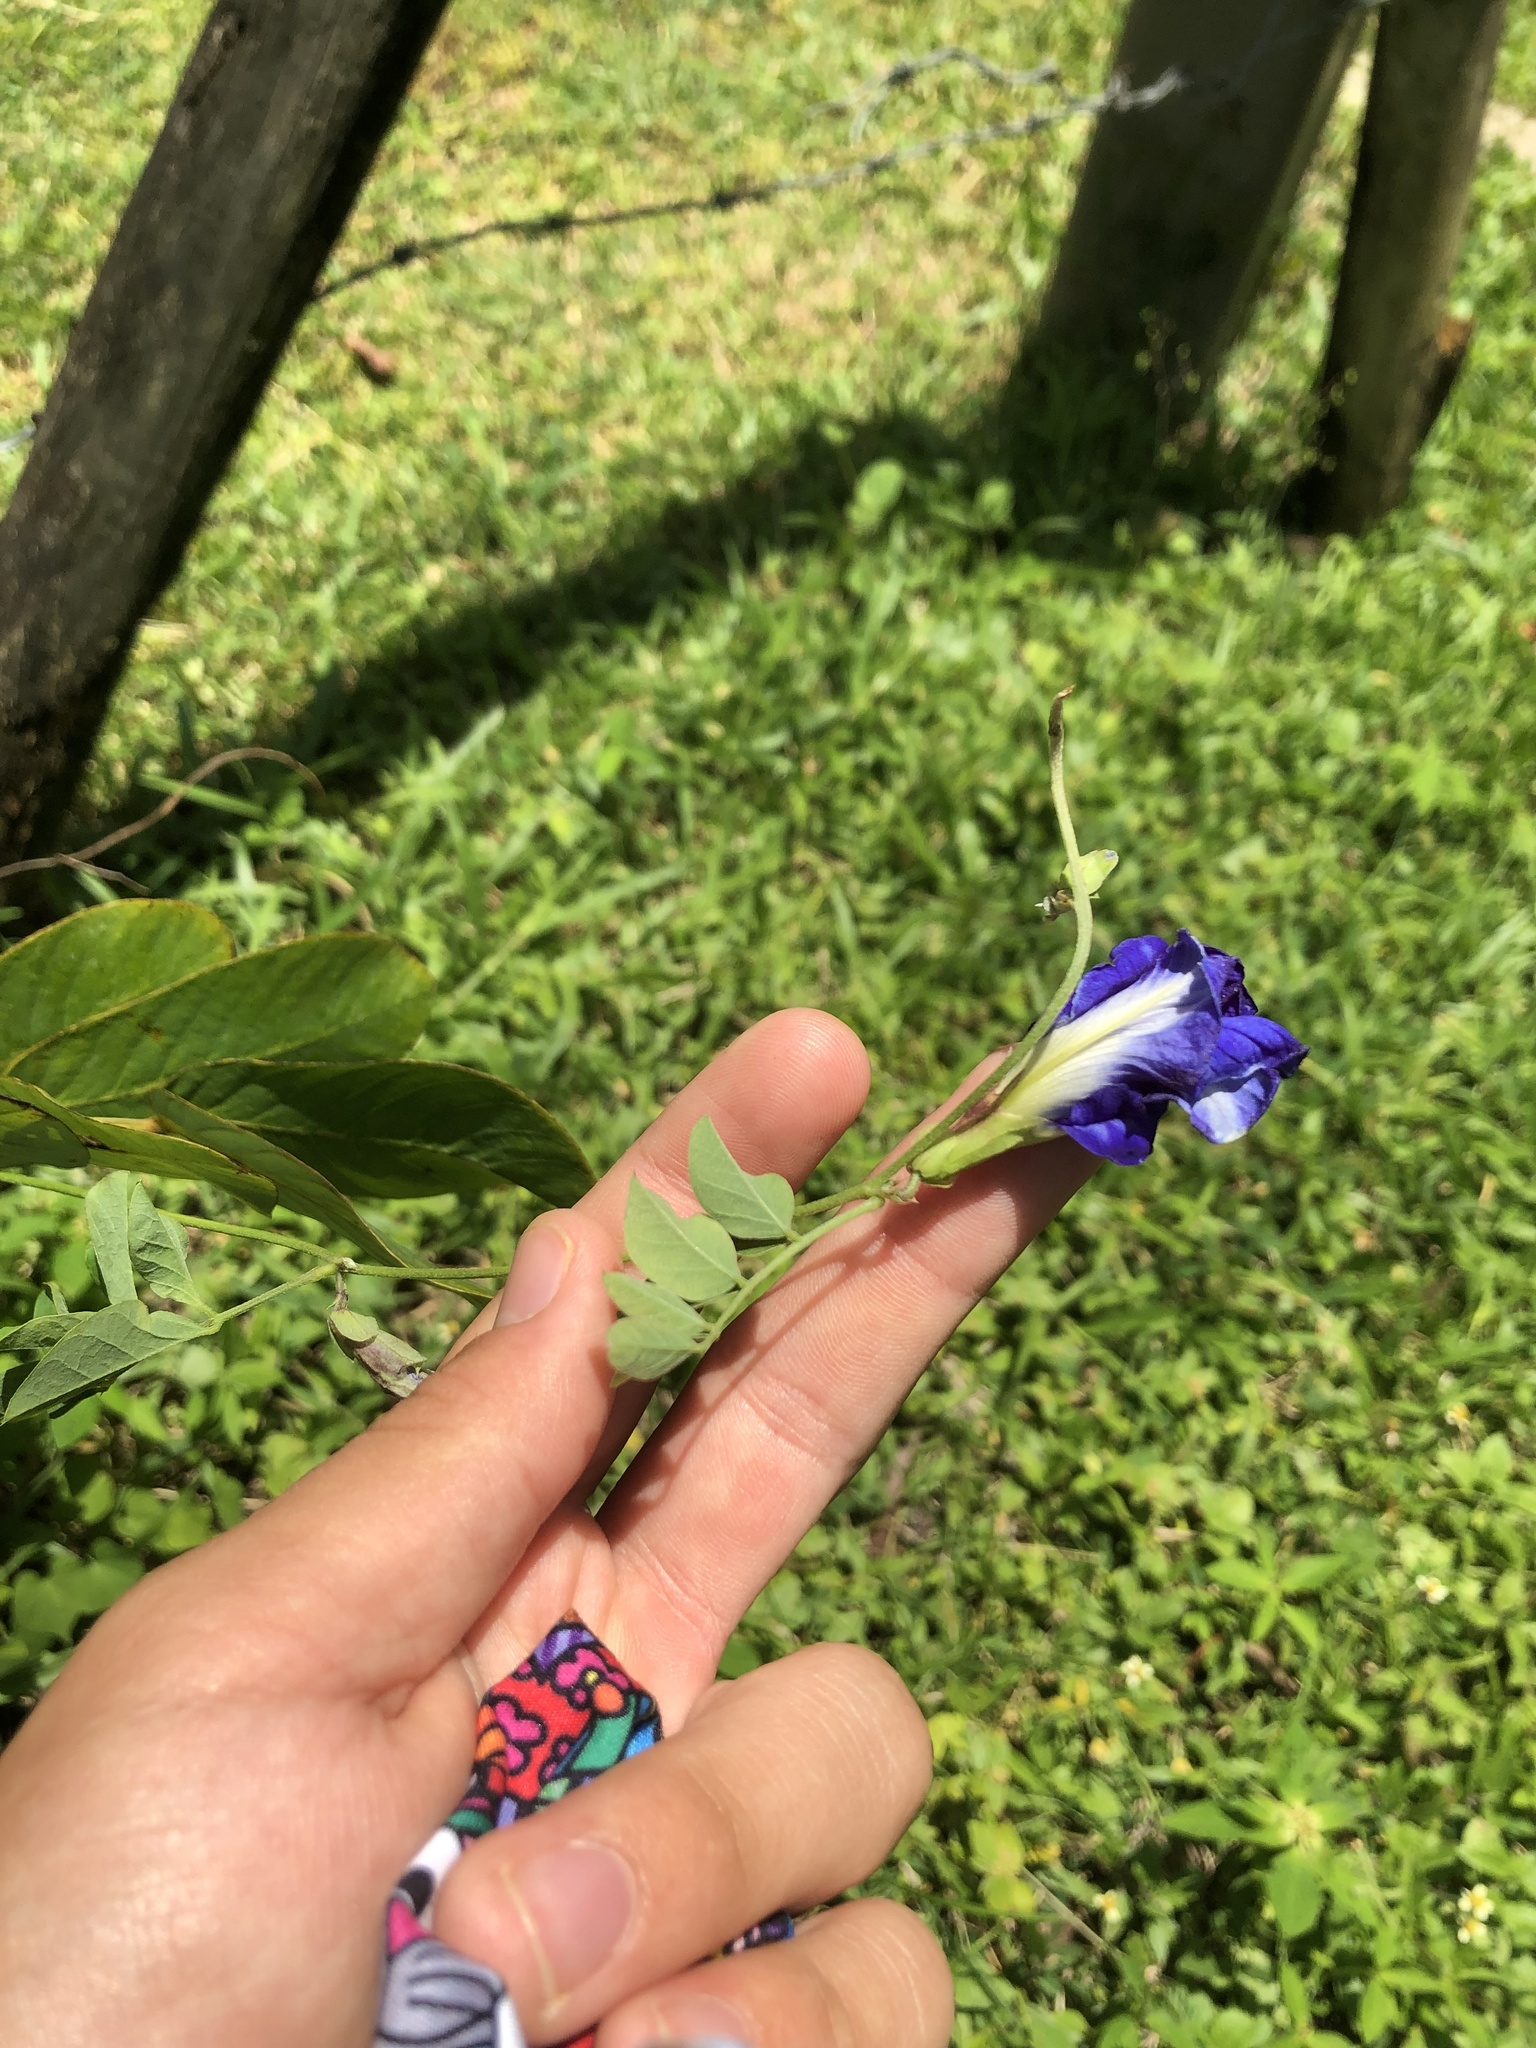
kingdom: Plantae
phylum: Tracheophyta
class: Magnoliopsida
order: Fabales
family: Fabaceae
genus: Clitoria
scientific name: Clitoria ternatea
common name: Asian pigeonwings
